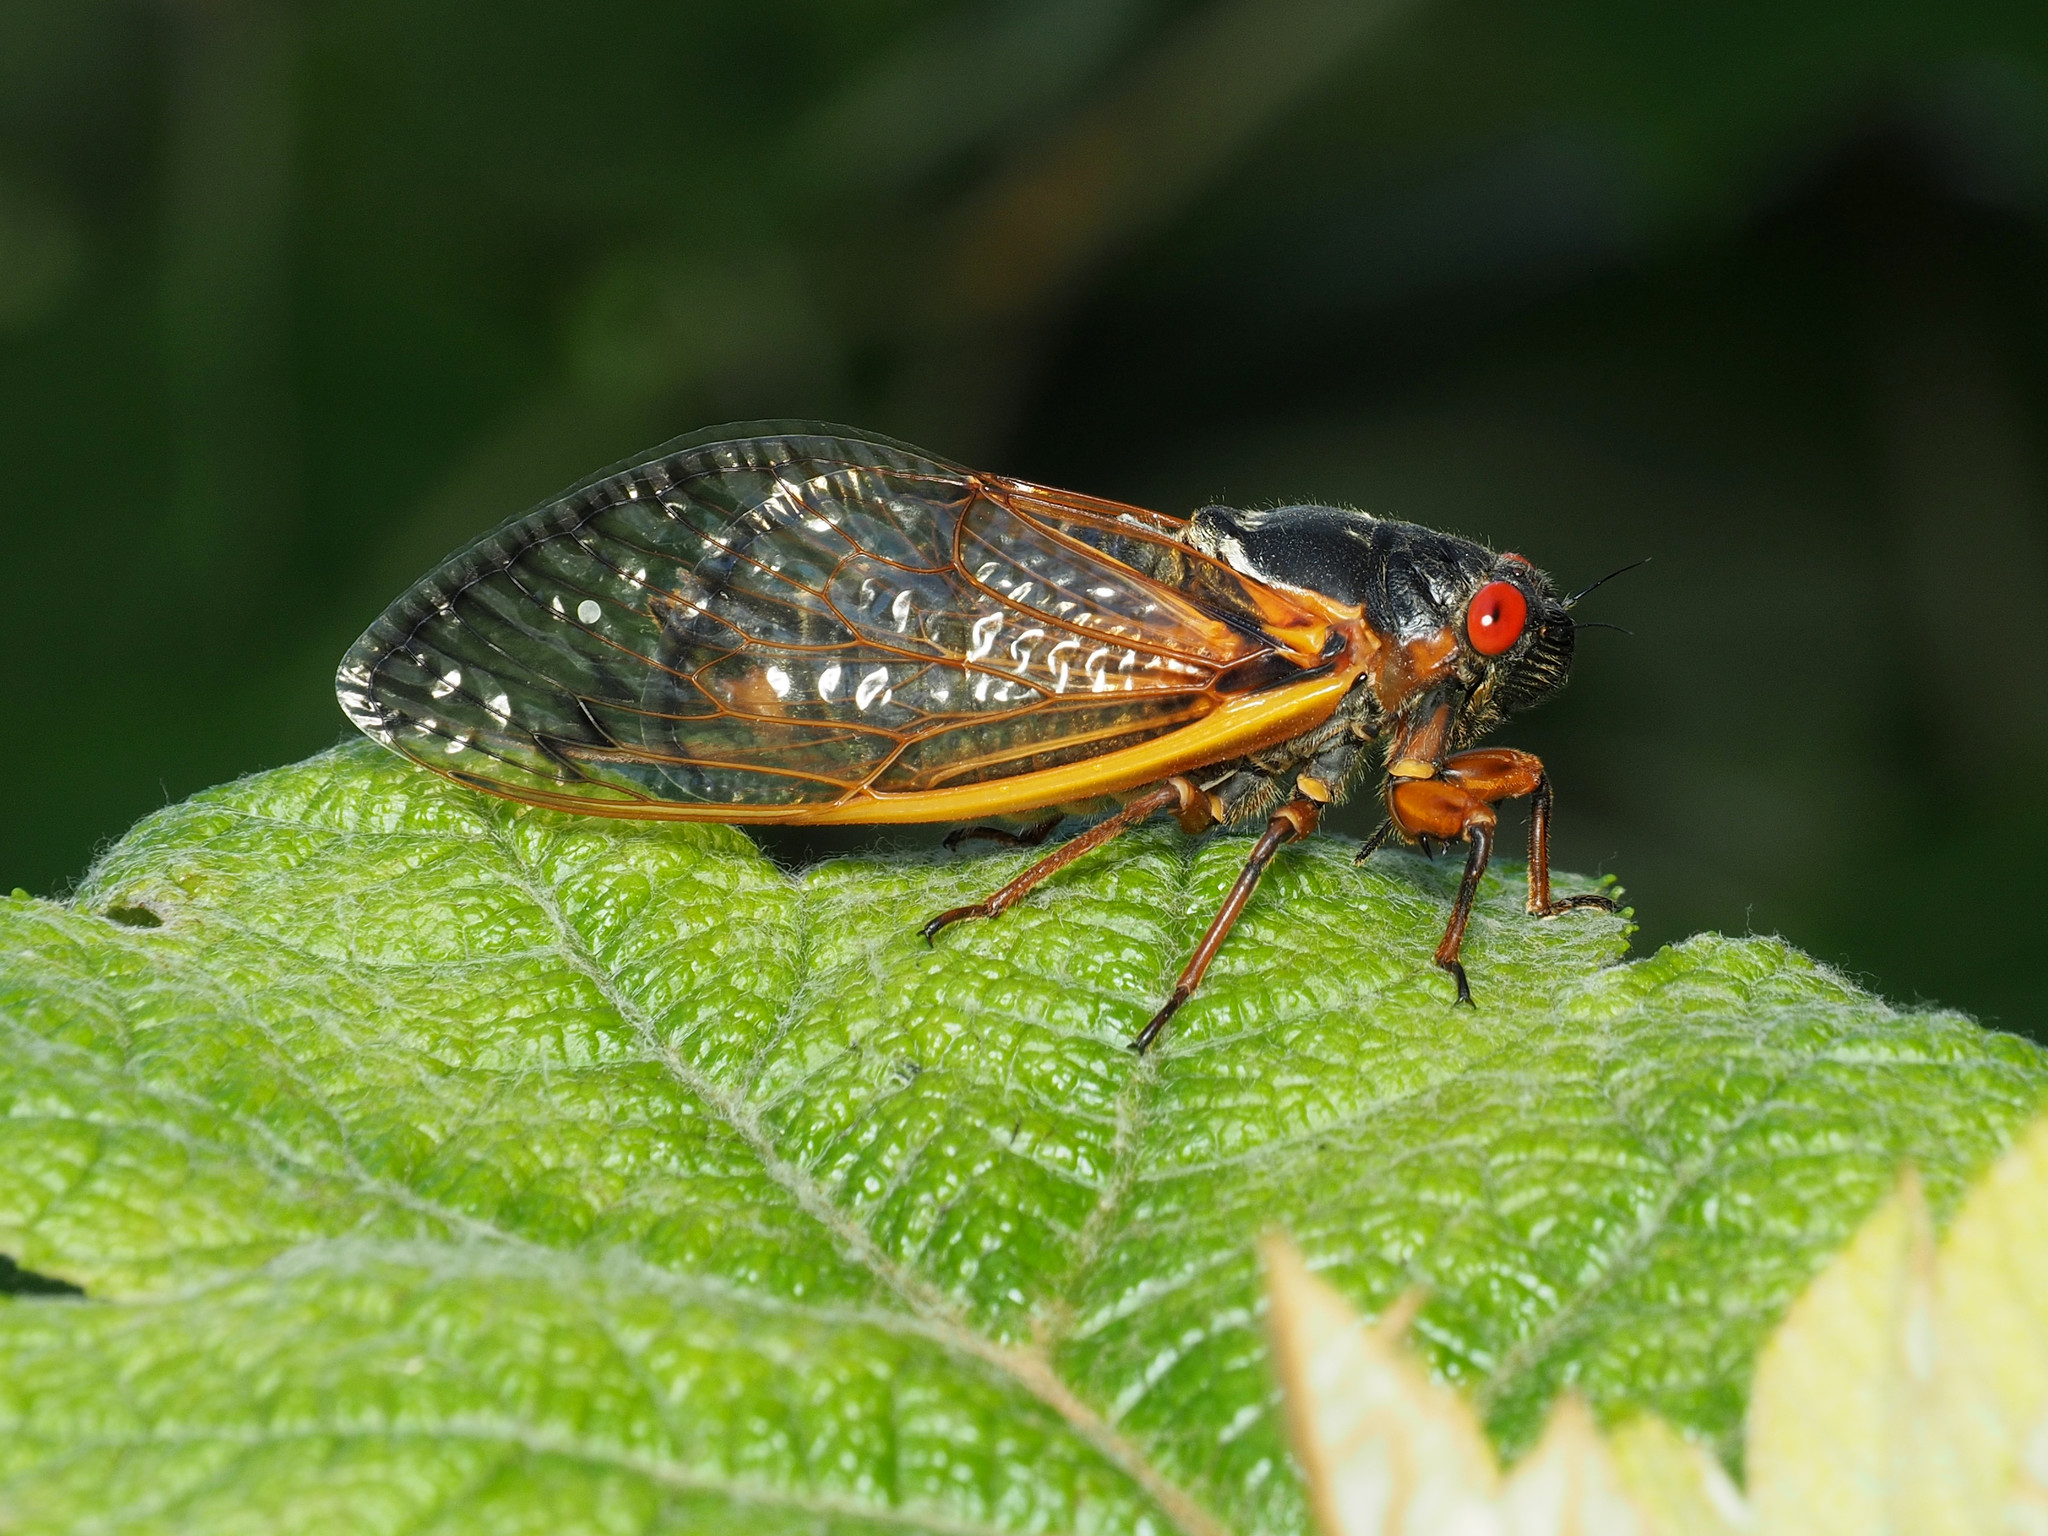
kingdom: Animalia
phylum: Arthropoda
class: Insecta
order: Hemiptera
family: Cicadidae
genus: Magicicada
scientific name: Magicicada septendecim
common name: Periodical cicada
